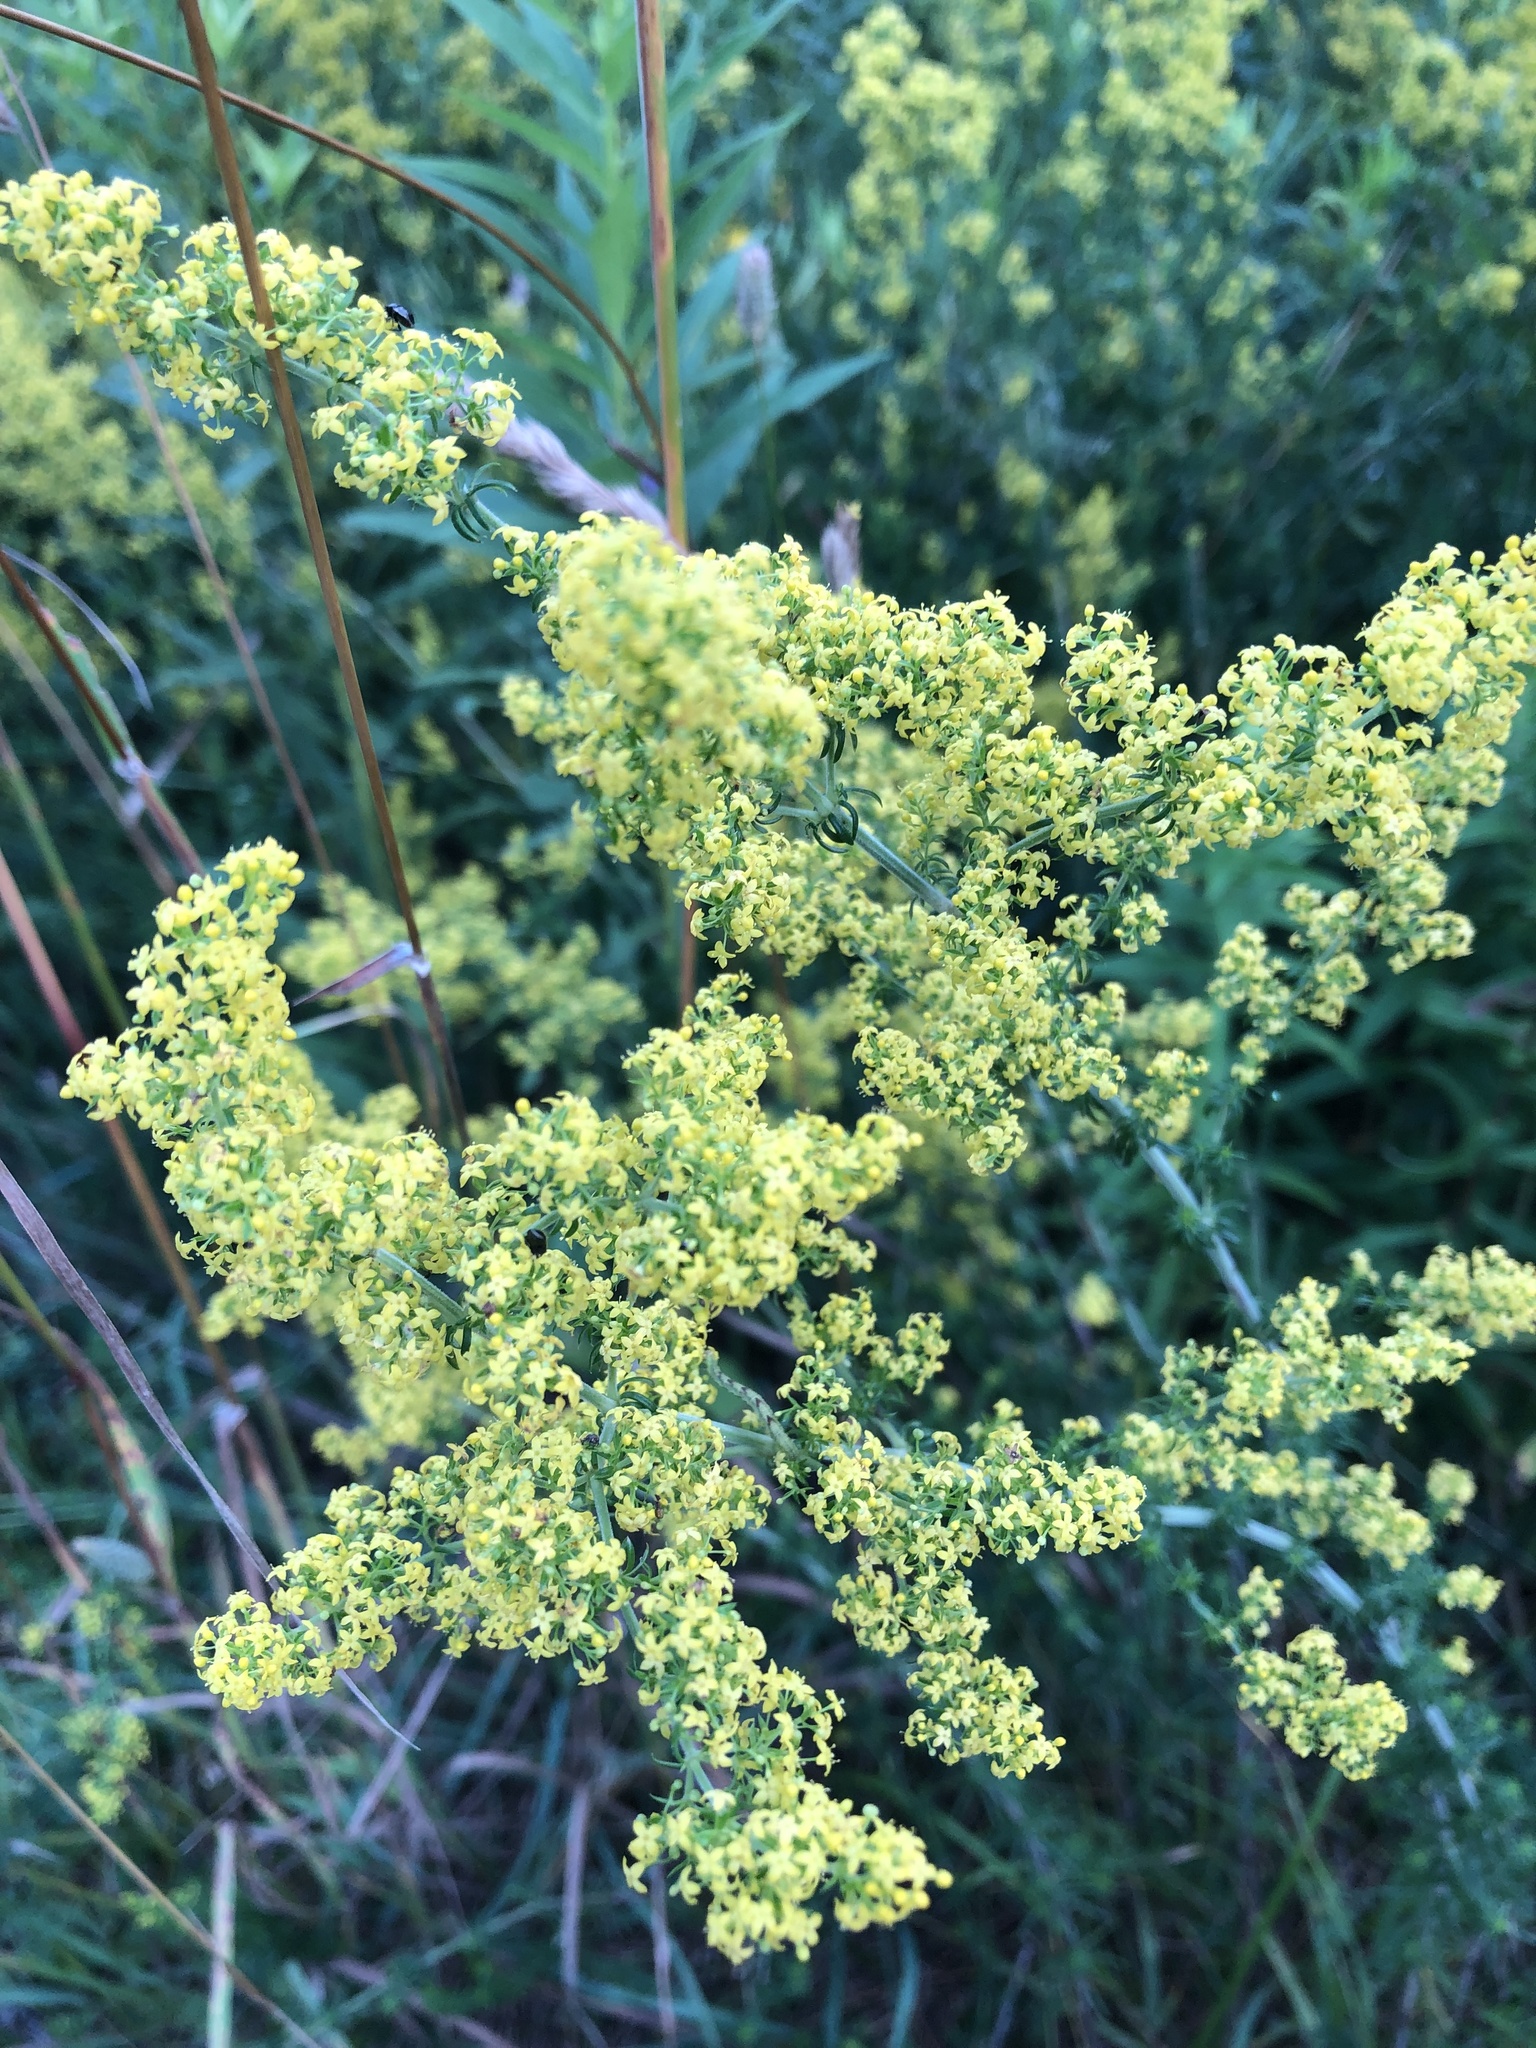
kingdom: Plantae
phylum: Tracheophyta
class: Magnoliopsida
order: Gentianales
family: Rubiaceae
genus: Galium
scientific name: Galium verum
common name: Lady's bedstraw
